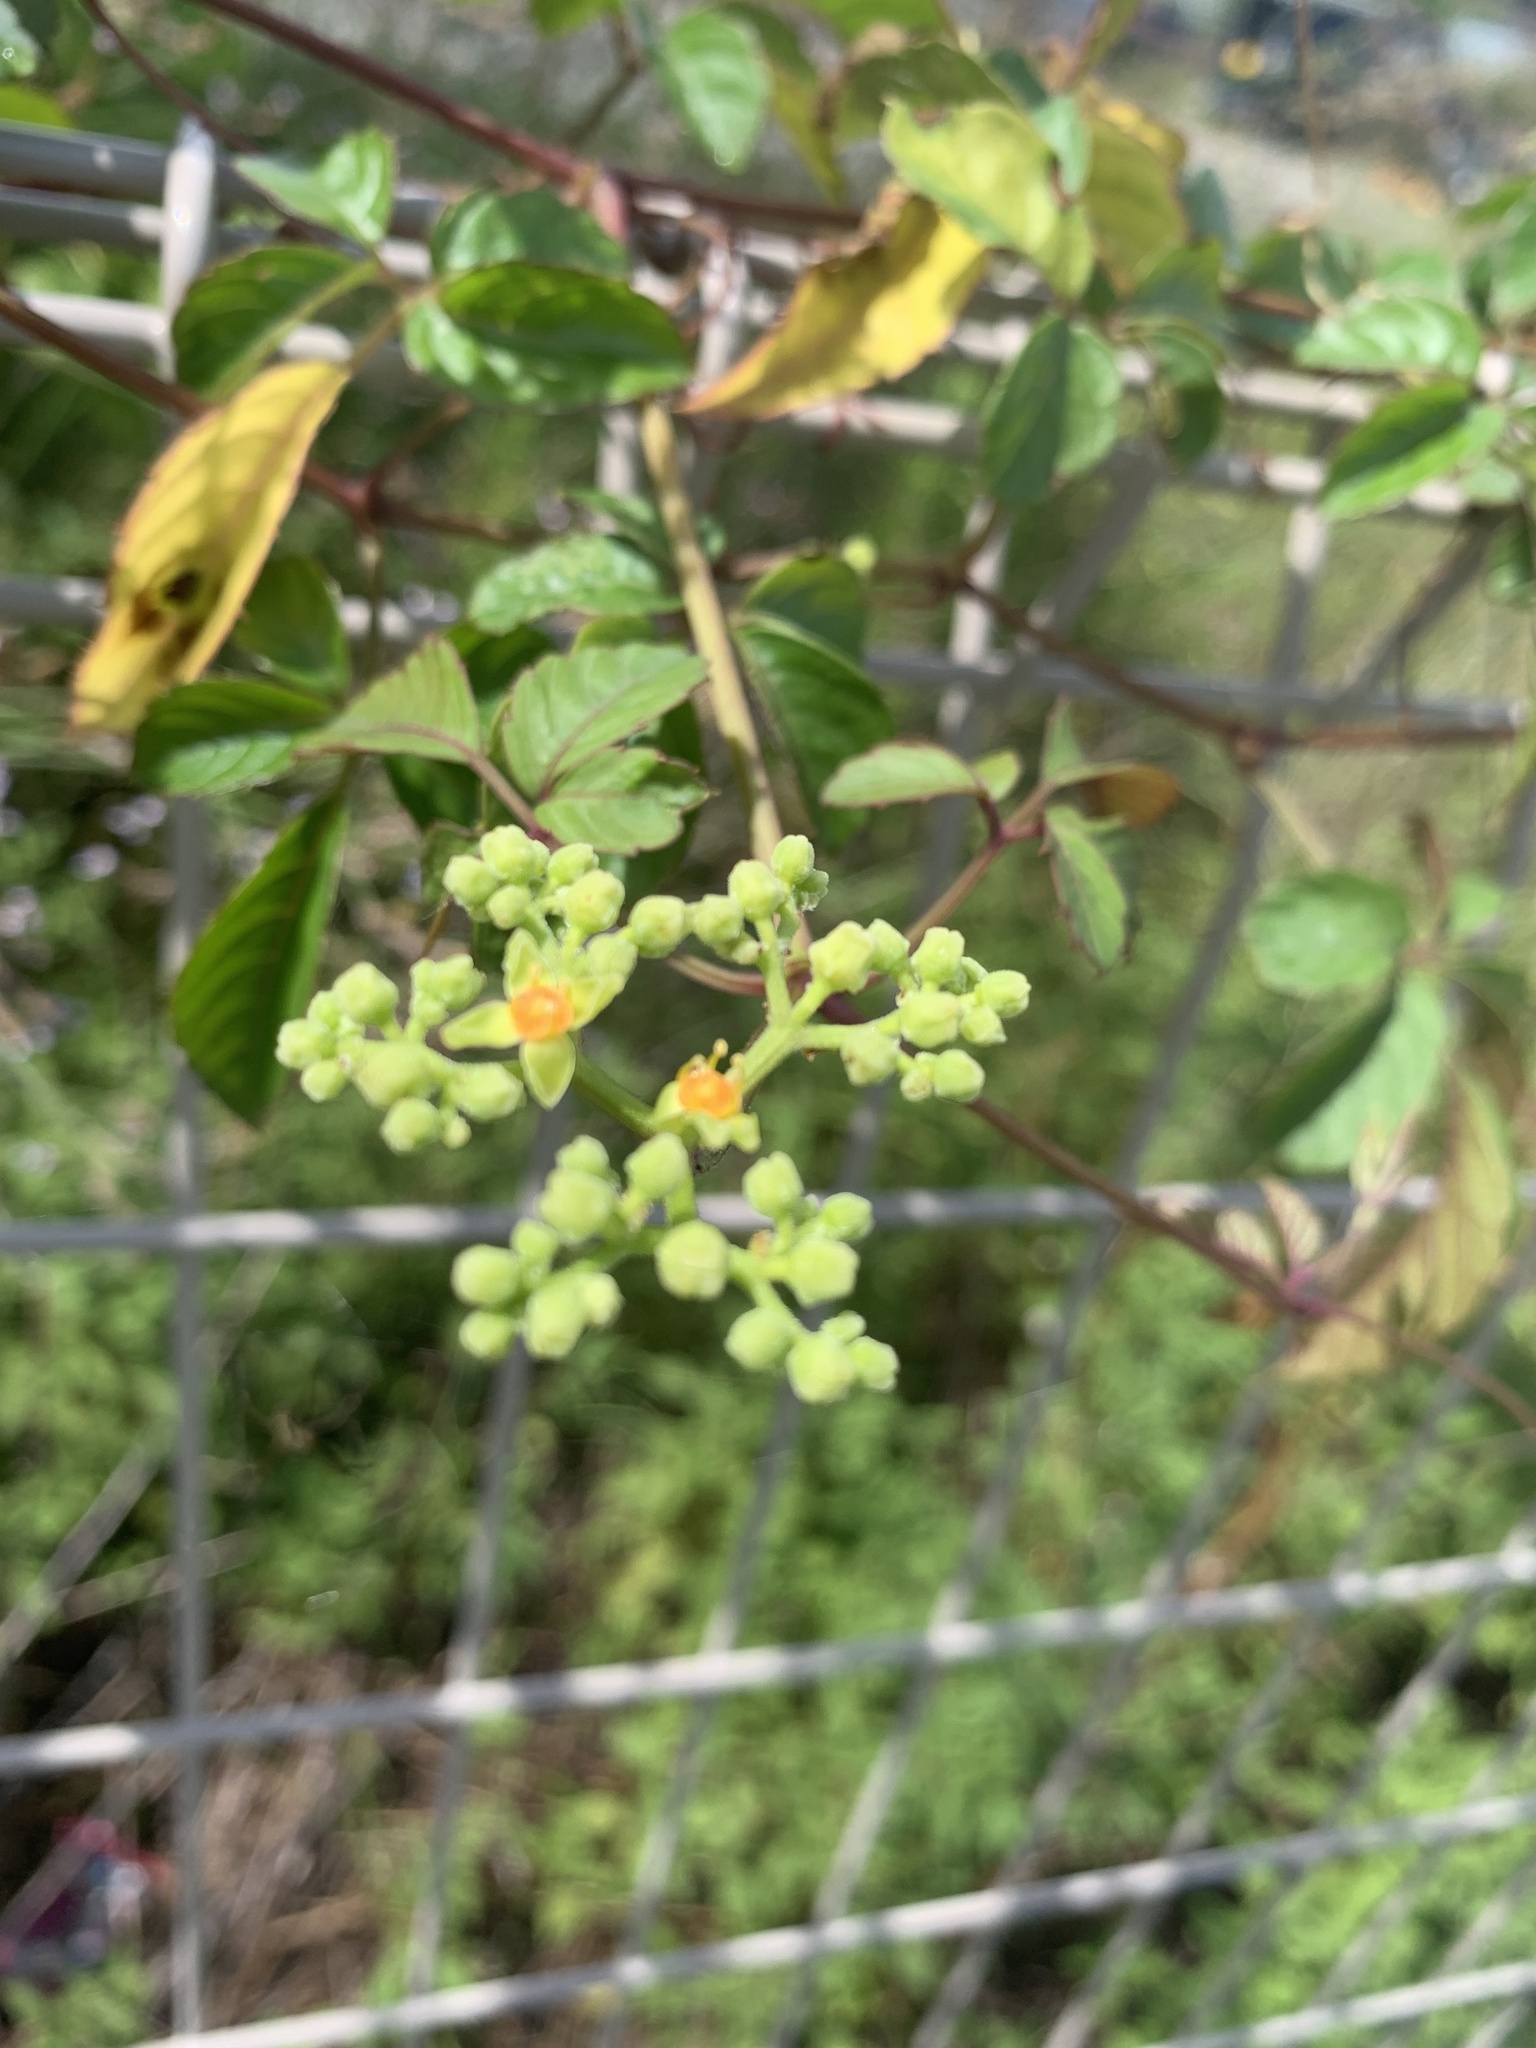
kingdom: Plantae
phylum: Tracheophyta
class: Magnoliopsida
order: Vitales
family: Vitaceae
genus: Causonis
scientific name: Causonis japonica
